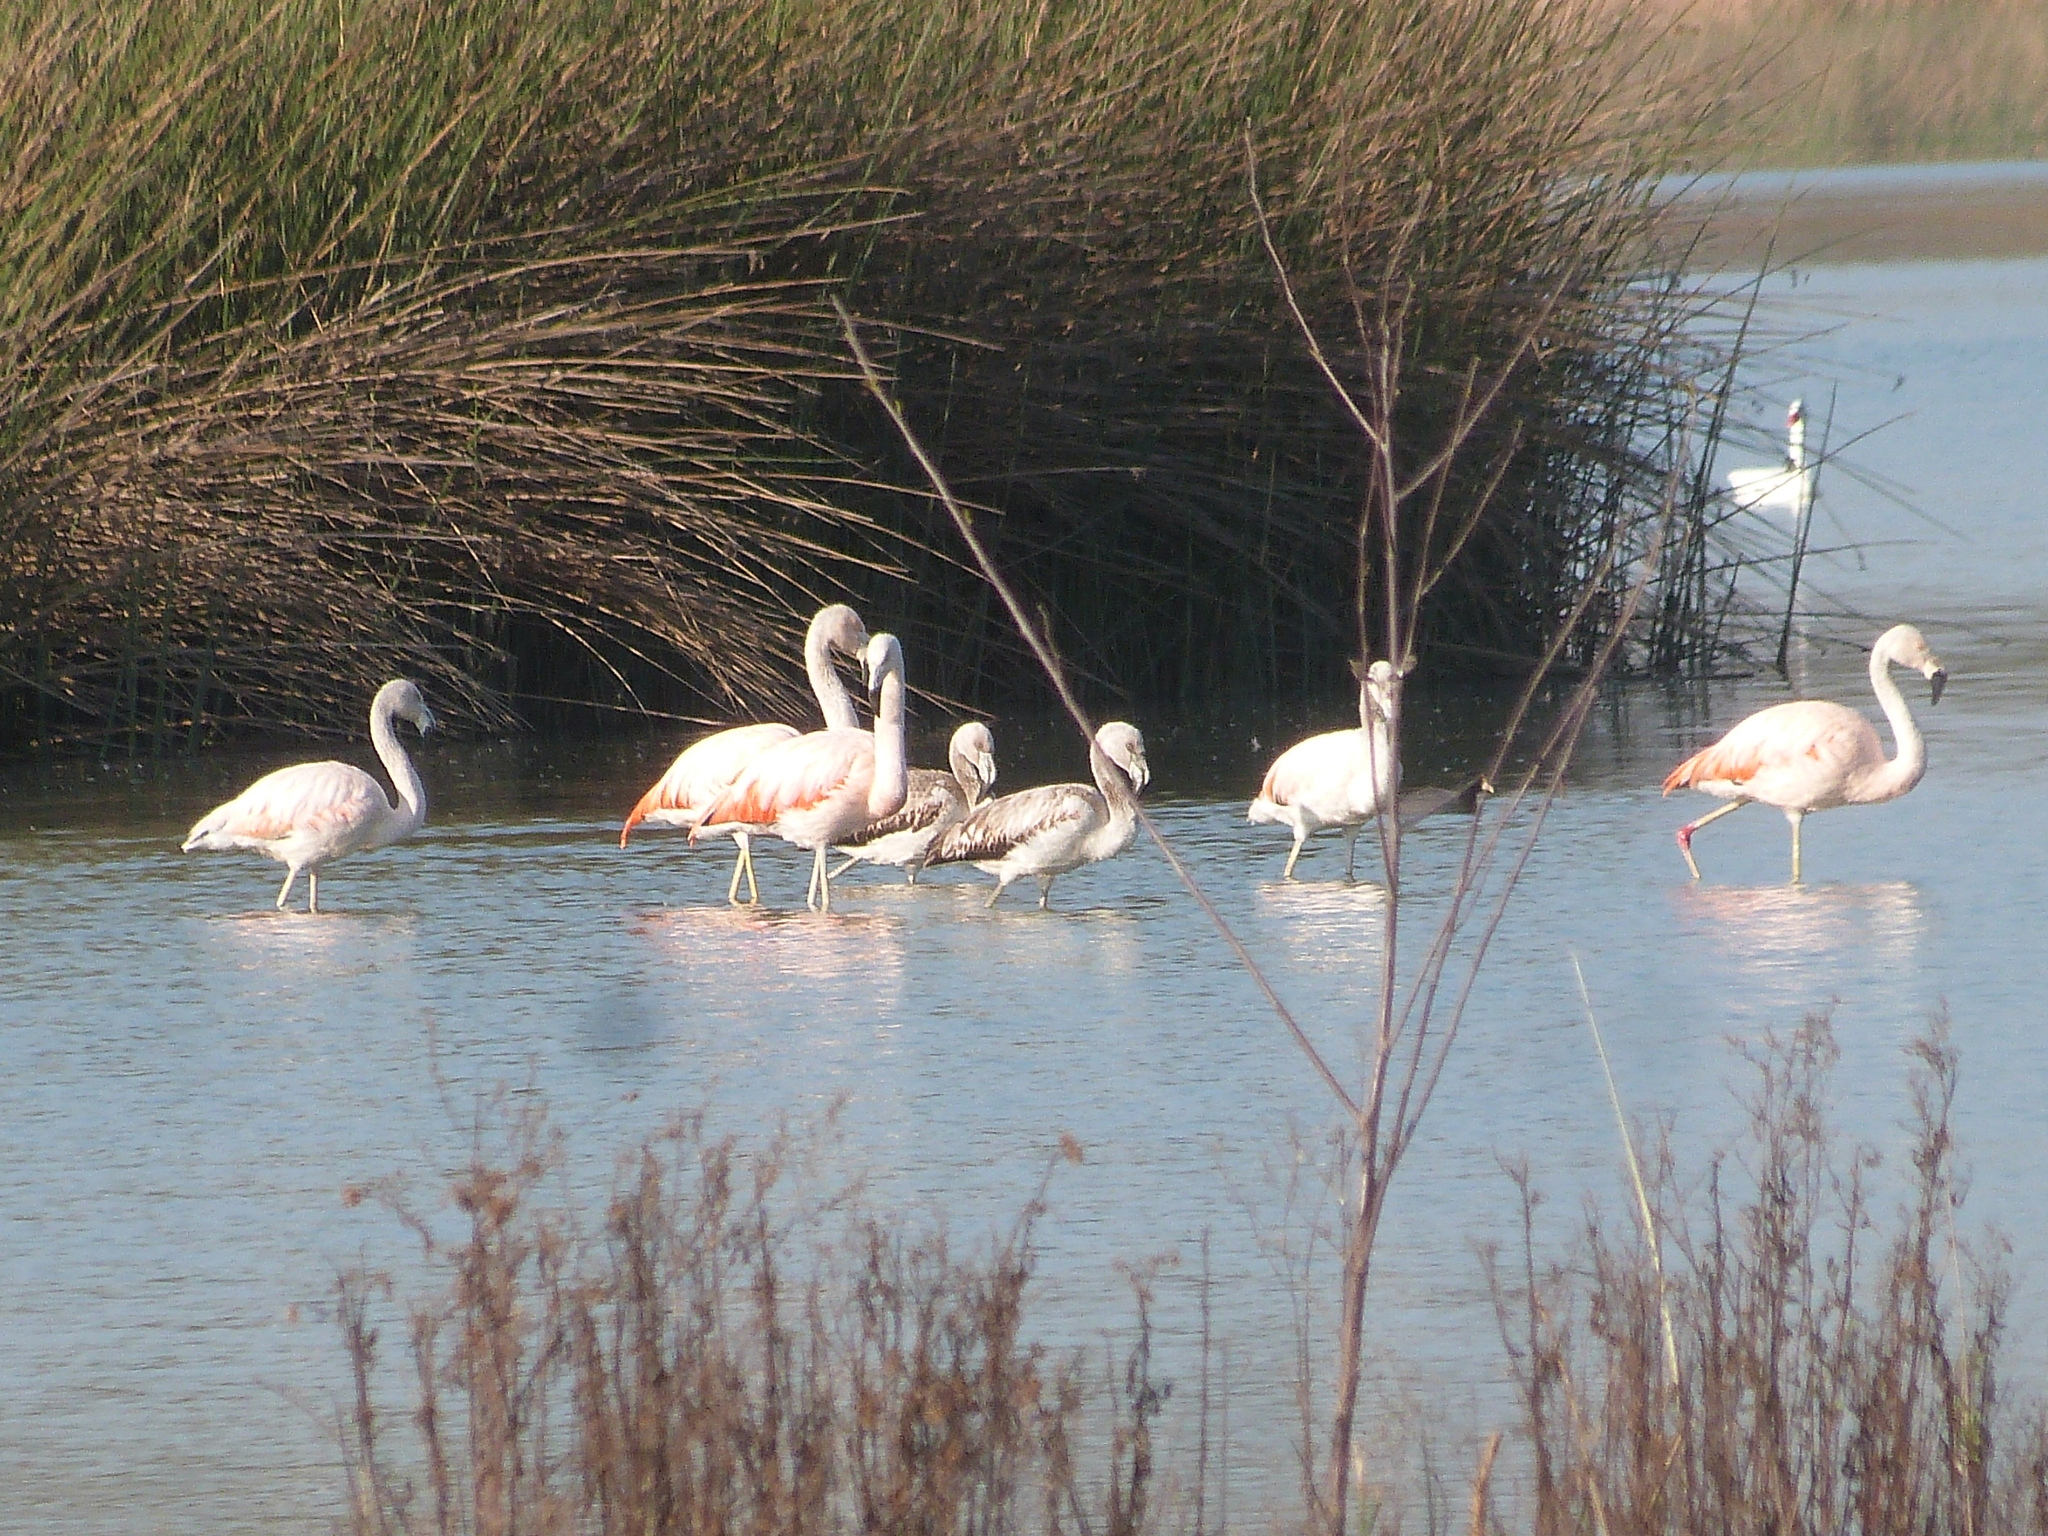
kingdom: Animalia
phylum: Chordata
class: Aves
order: Phoenicopteriformes
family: Phoenicopteridae
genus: Phoenicopterus
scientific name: Phoenicopterus chilensis
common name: Chilean flamingo
